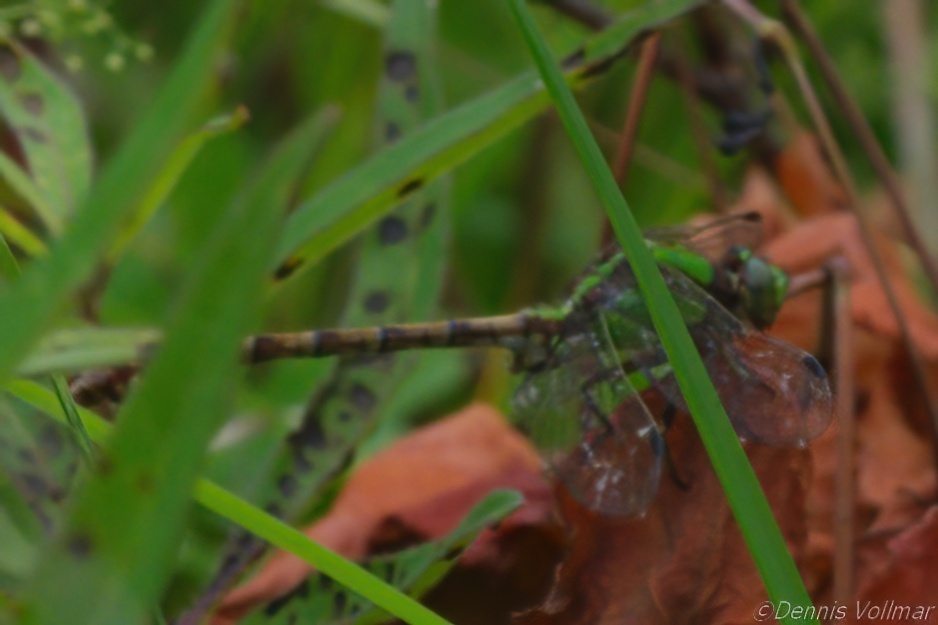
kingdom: Animalia
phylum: Arthropoda
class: Insecta
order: Odonata
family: Gomphidae
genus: Ophiogomphus
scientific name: Ophiogomphus rupinsulensis
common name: Rusty snaketail
